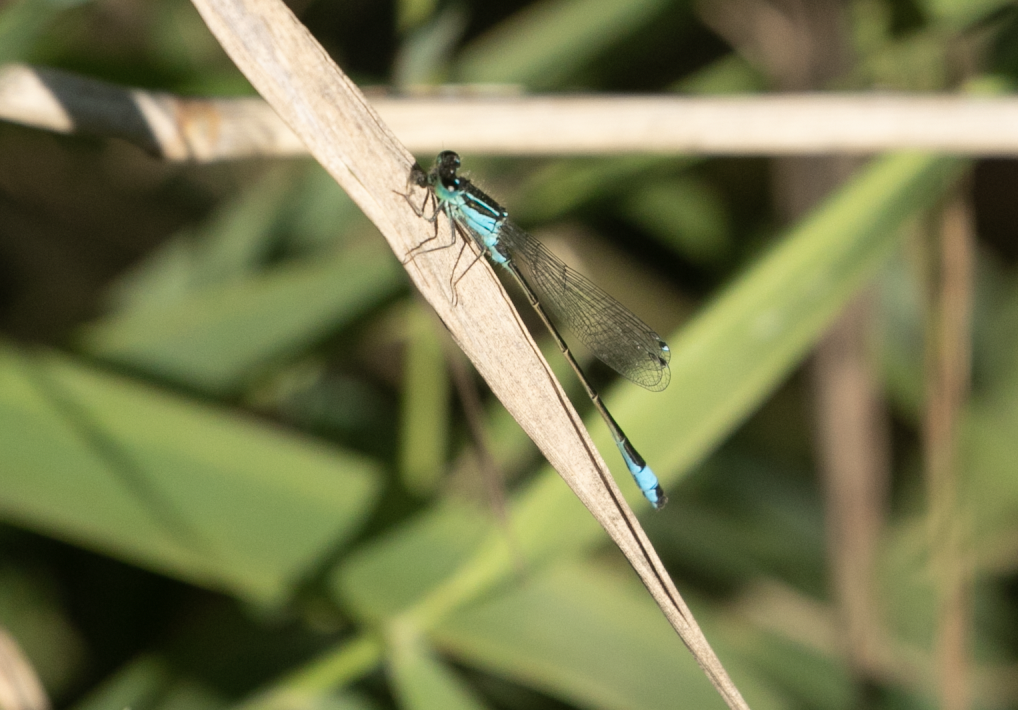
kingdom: Animalia
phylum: Arthropoda
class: Insecta
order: Odonata
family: Coenagrionidae
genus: Ischnura
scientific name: Ischnura elegans
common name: Blue-tailed damselfly
